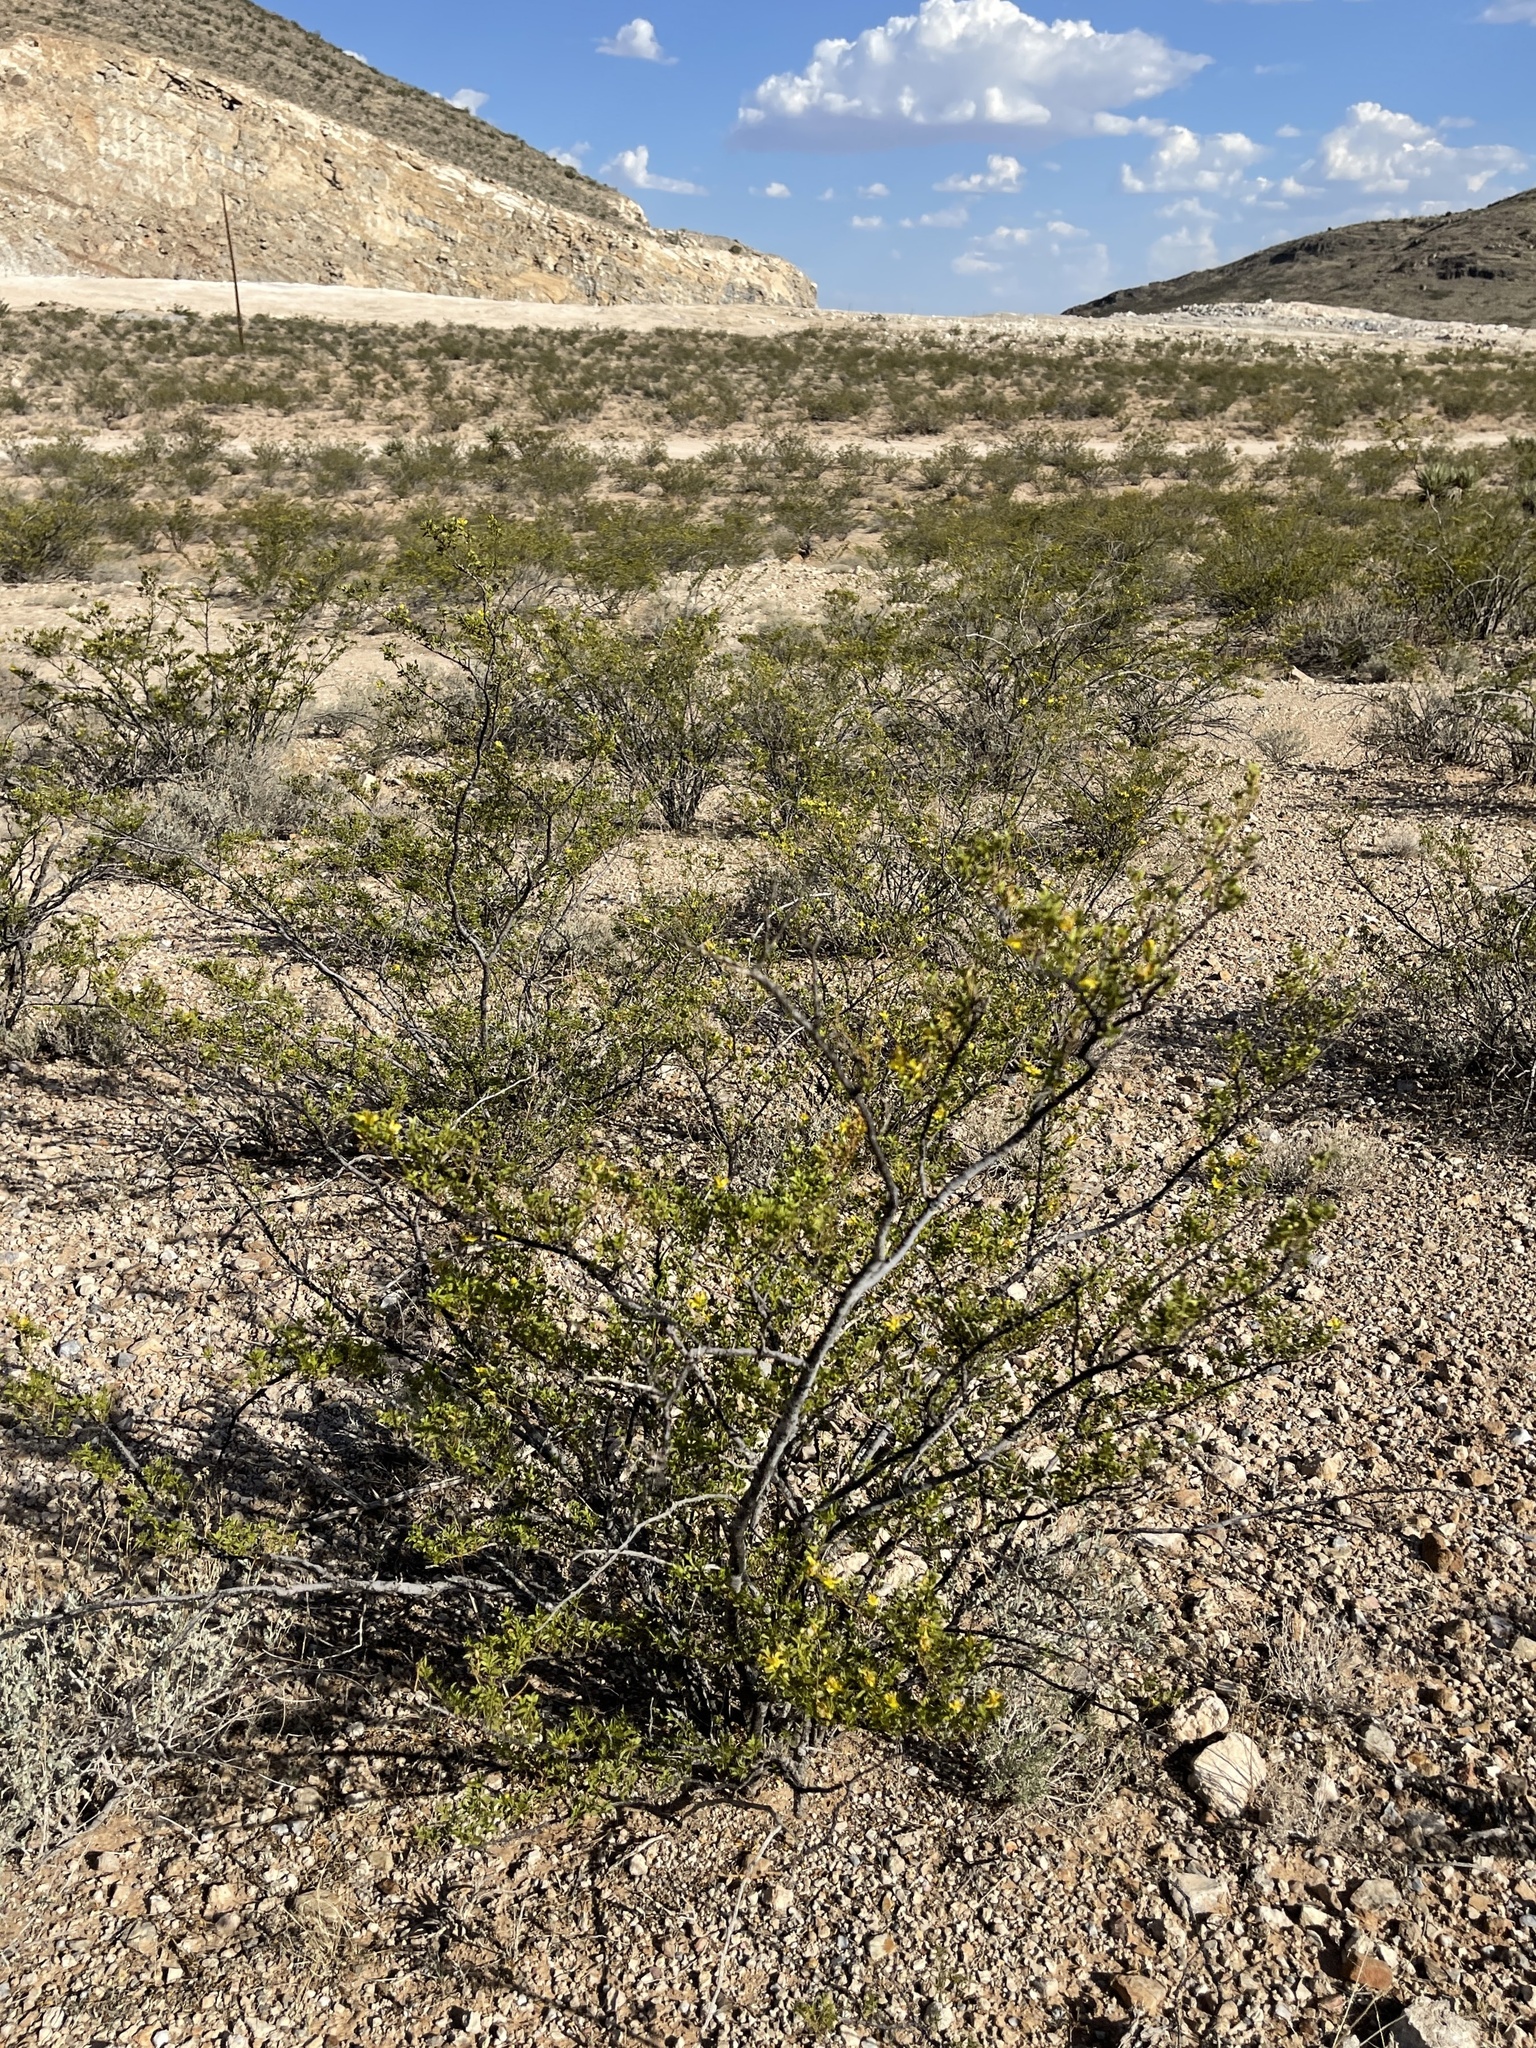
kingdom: Plantae
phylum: Tracheophyta
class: Magnoliopsida
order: Zygophyllales
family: Zygophyllaceae
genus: Larrea
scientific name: Larrea tridentata
